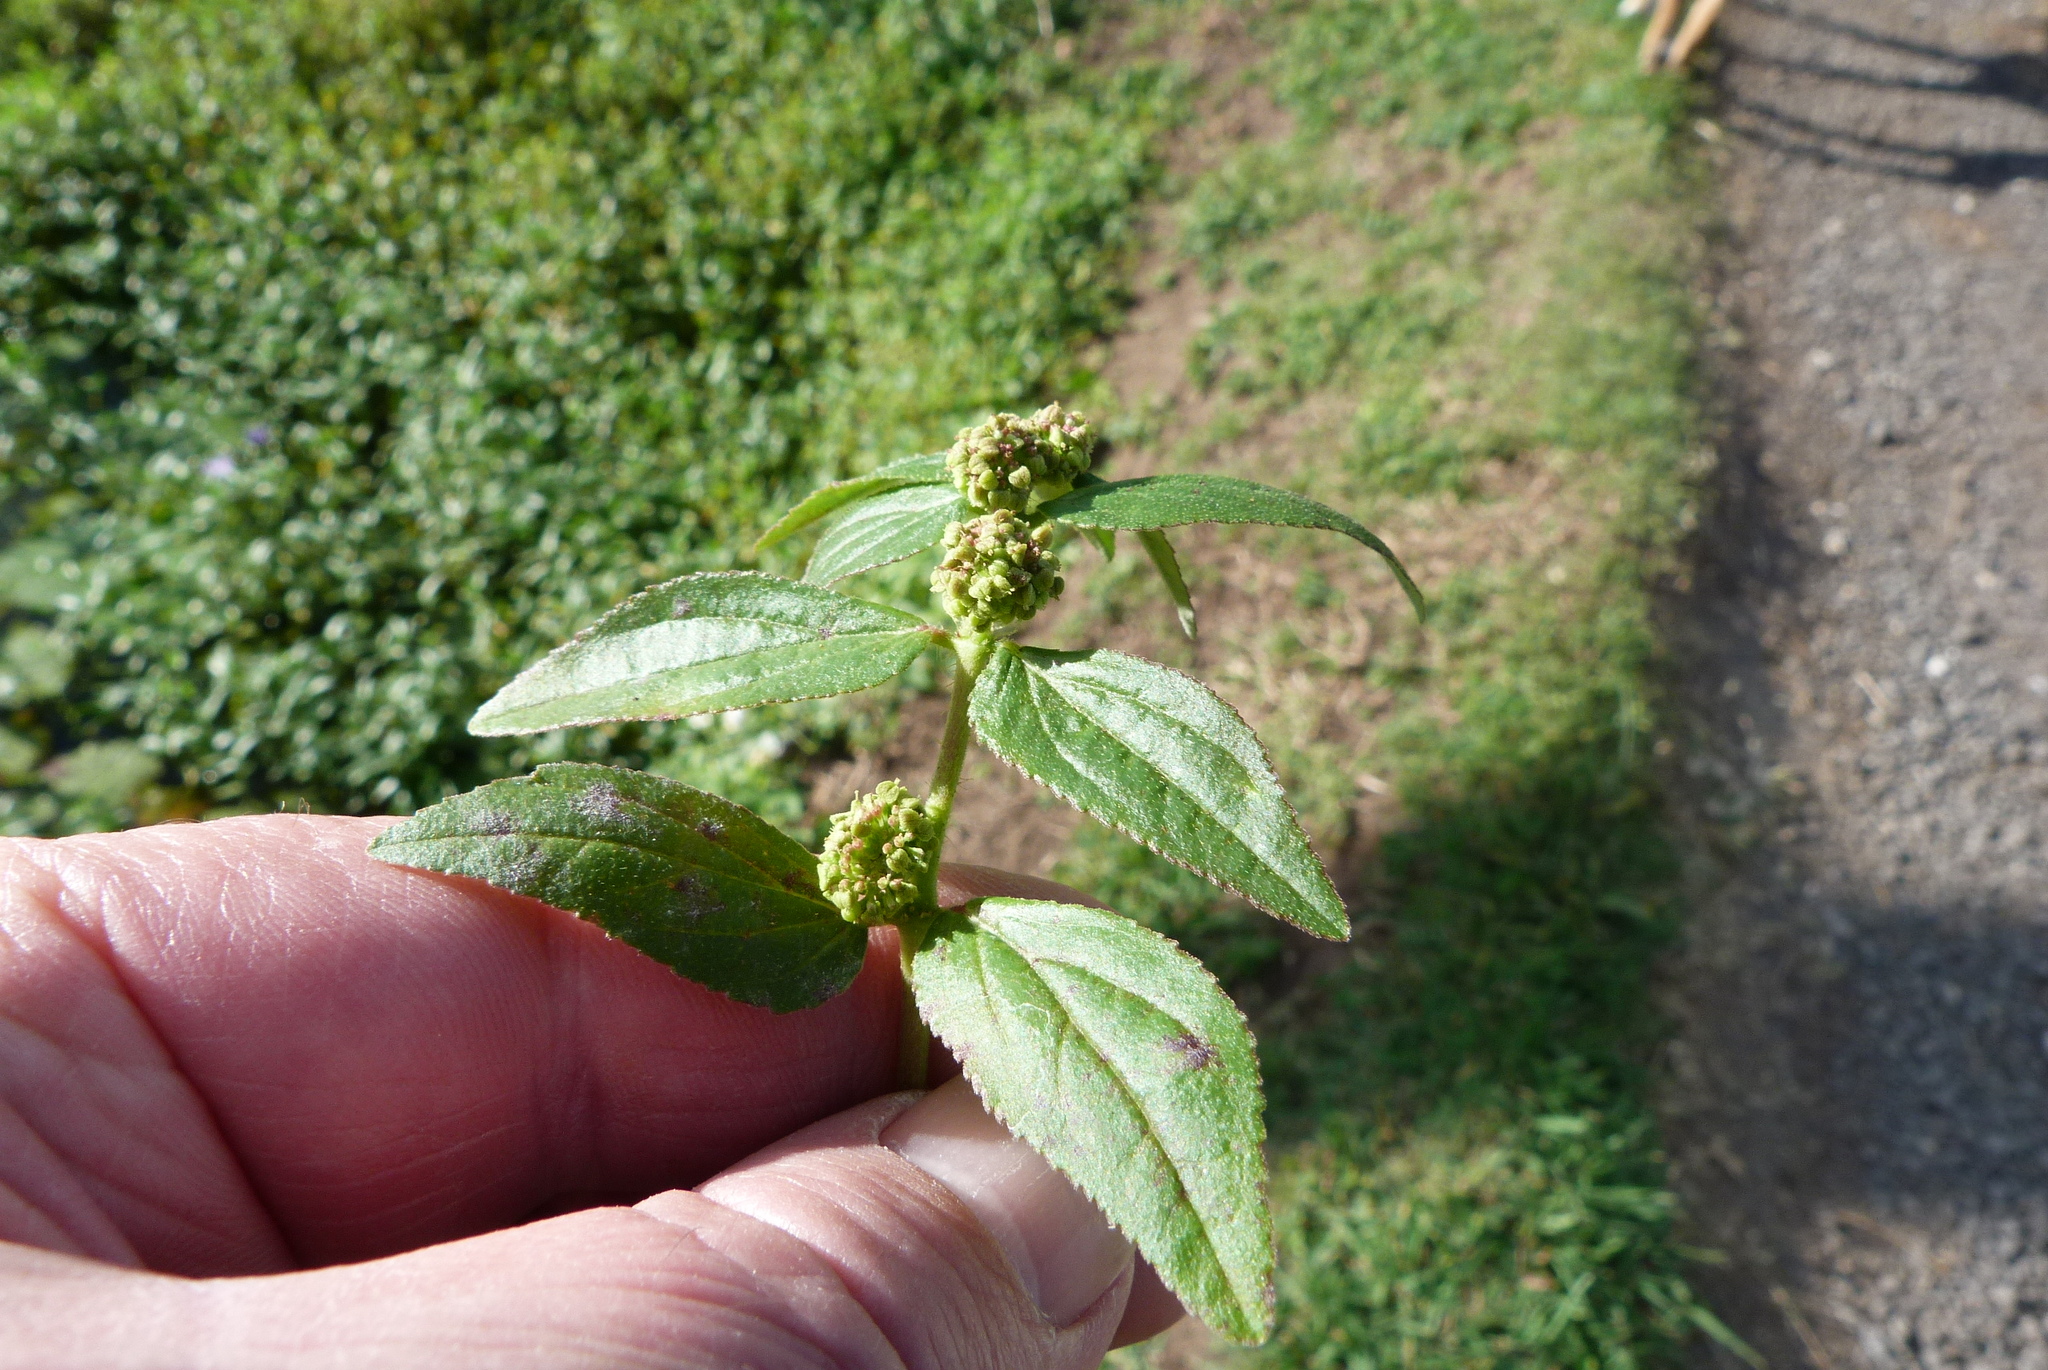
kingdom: Plantae
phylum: Tracheophyta
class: Magnoliopsida
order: Malpighiales
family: Euphorbiaceae
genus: Euphorbia
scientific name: Euphorbia hirta
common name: Pillpod sandmat
